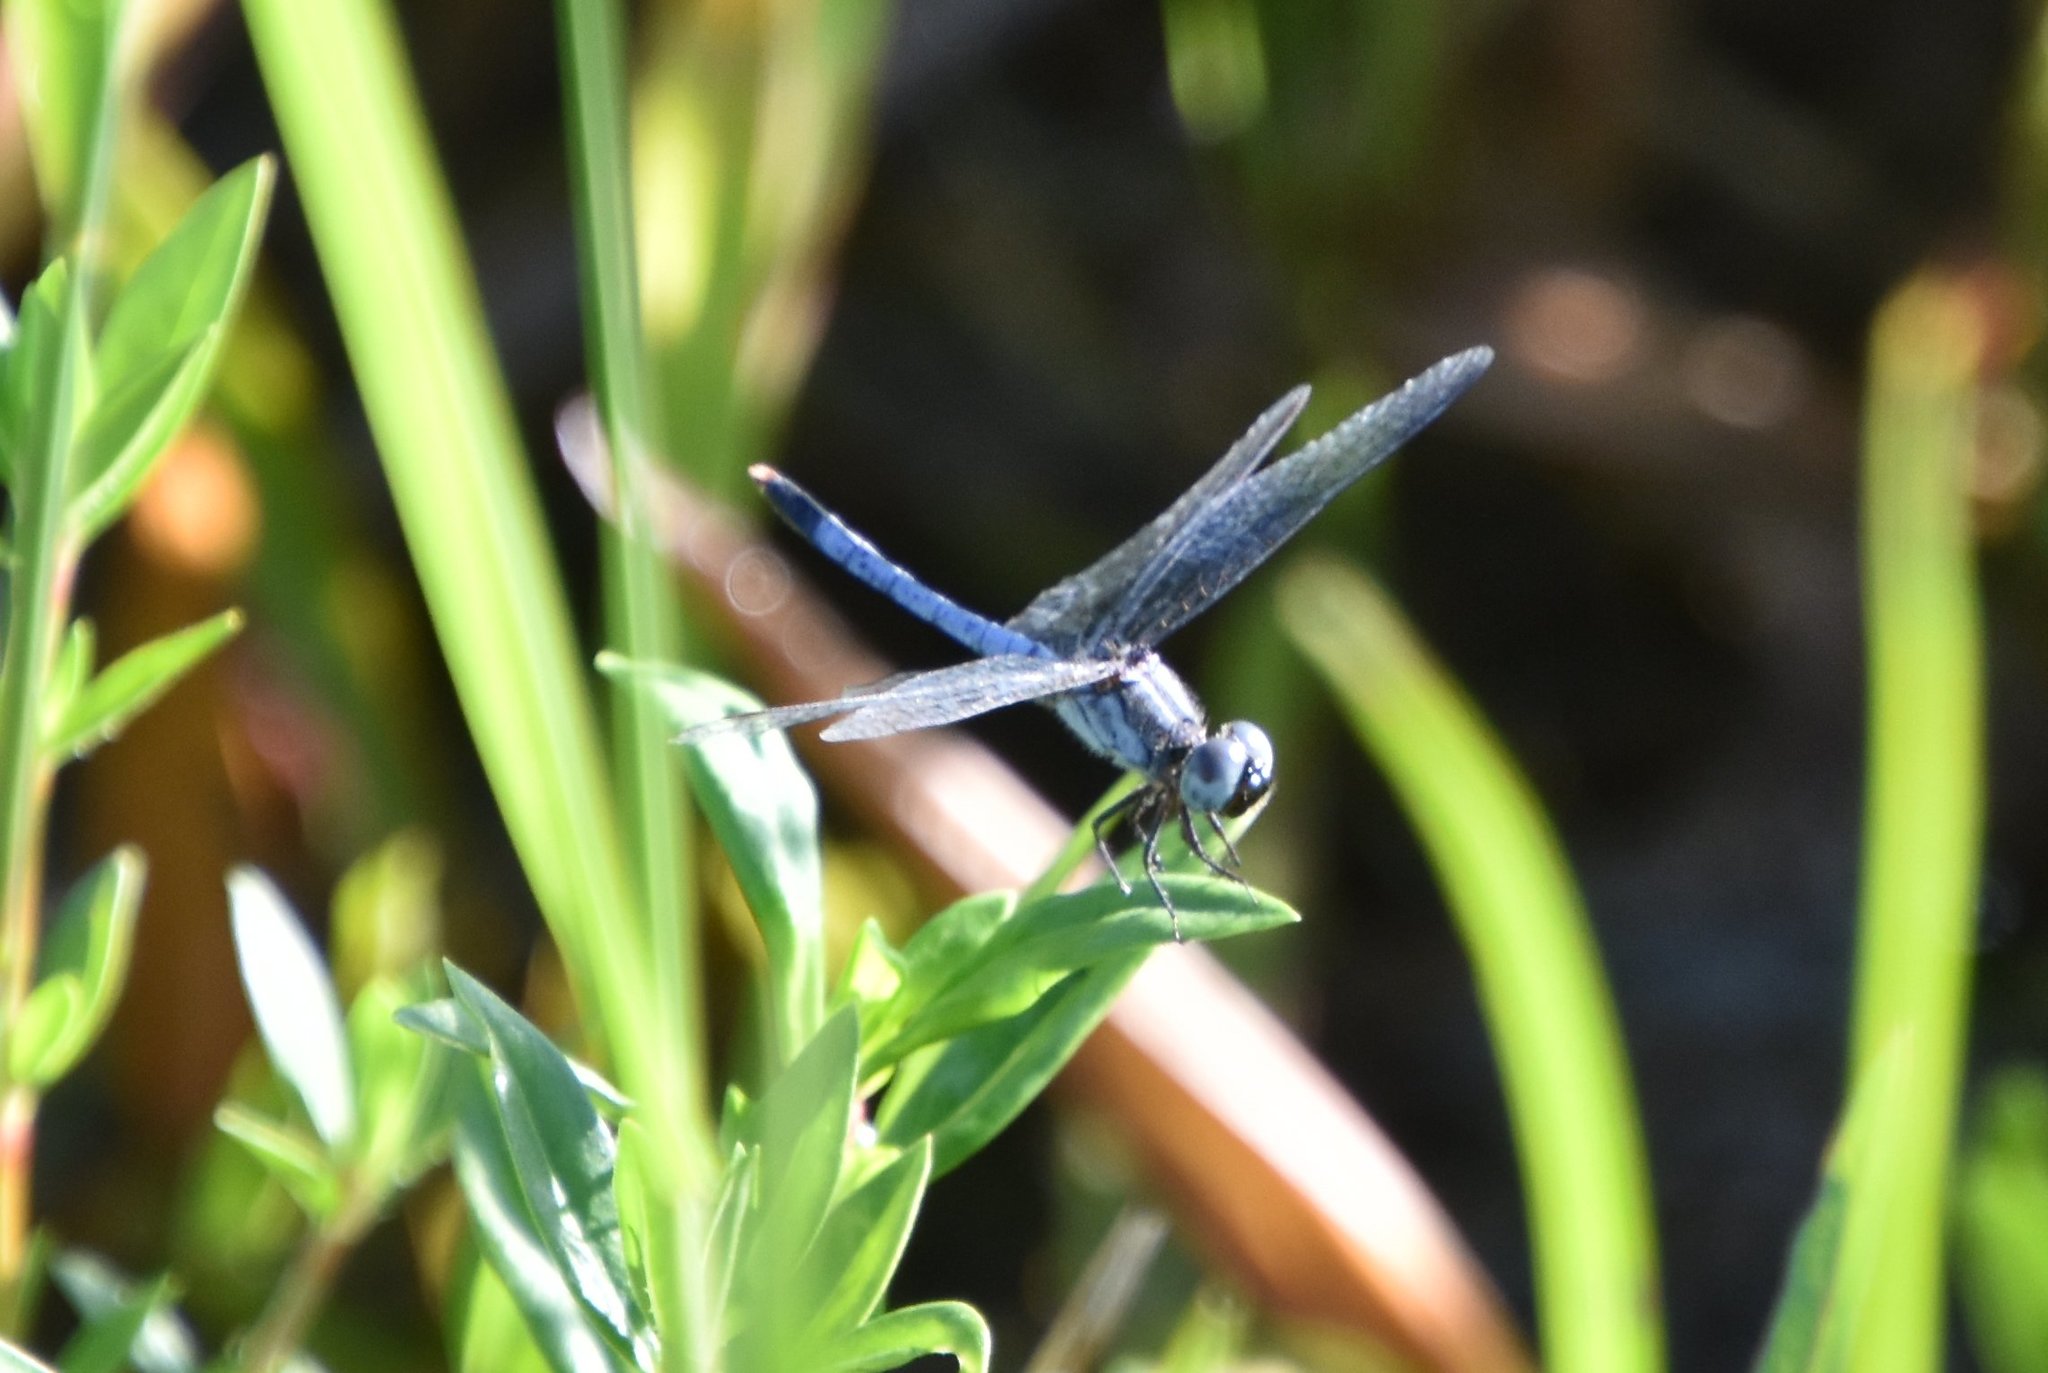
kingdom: Animalia
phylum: Arthropoda
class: Insecta
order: Odonata
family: Libellulidae
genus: Erythrodiplax
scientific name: Erythrodiplax minuscula
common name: Little blue dragonlet
